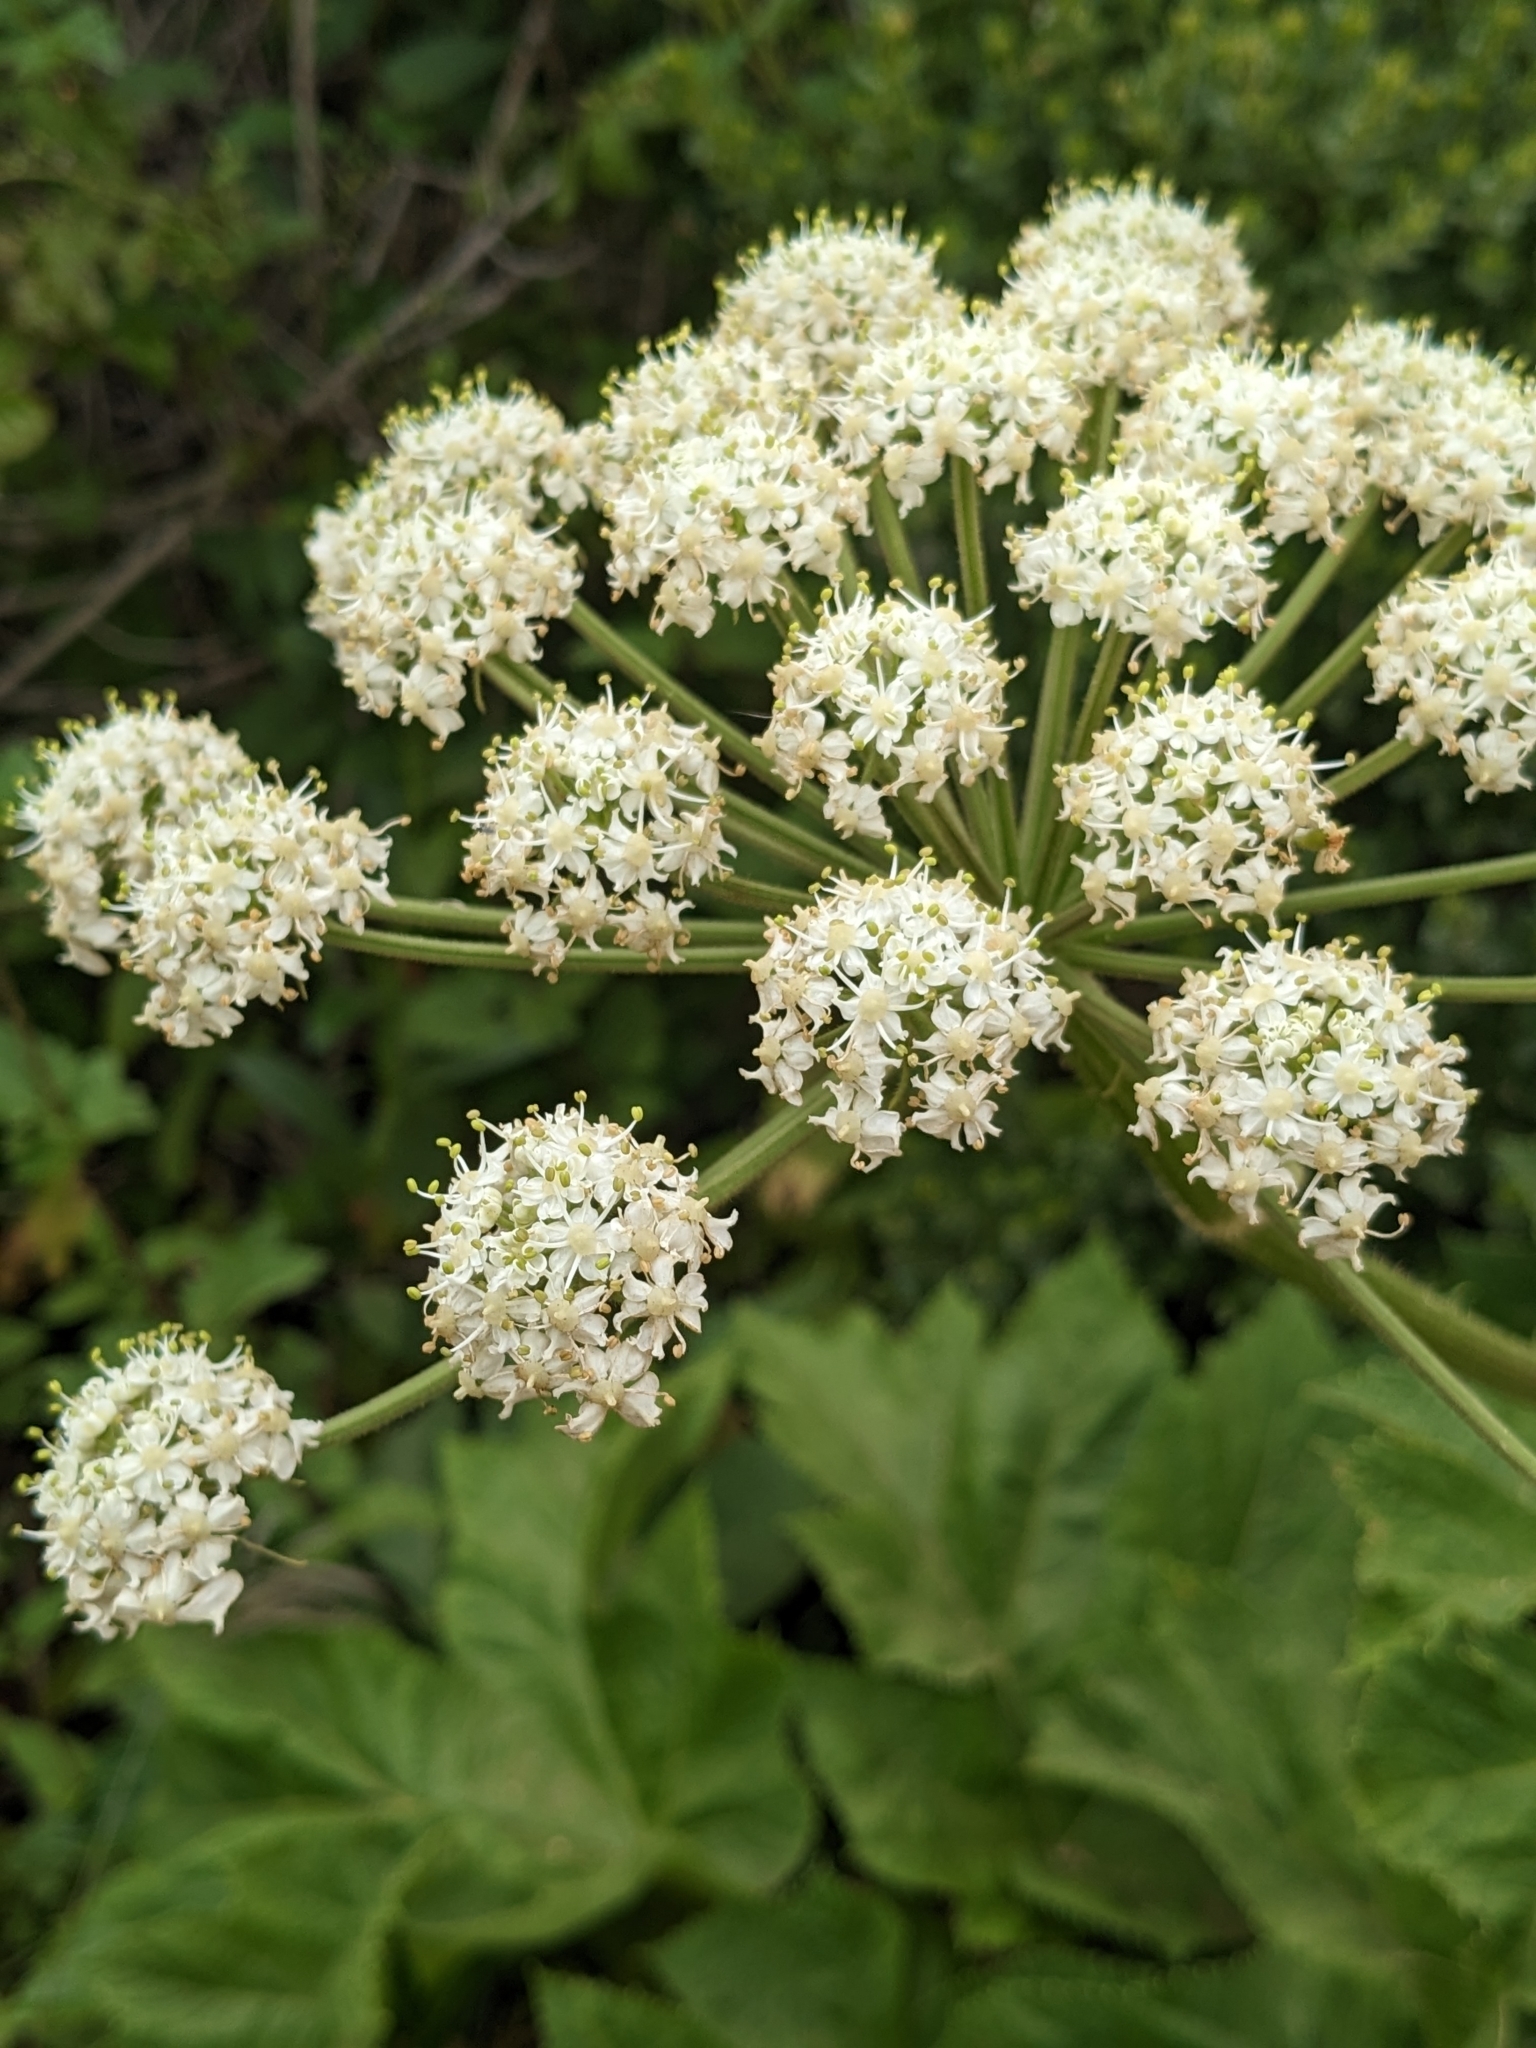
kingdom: Plantae
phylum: Tracheophyta
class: Magnoliopsida
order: Apiales
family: Apiaceae
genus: Heracleum
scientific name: Heracleum maximum
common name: American cow parsnip
